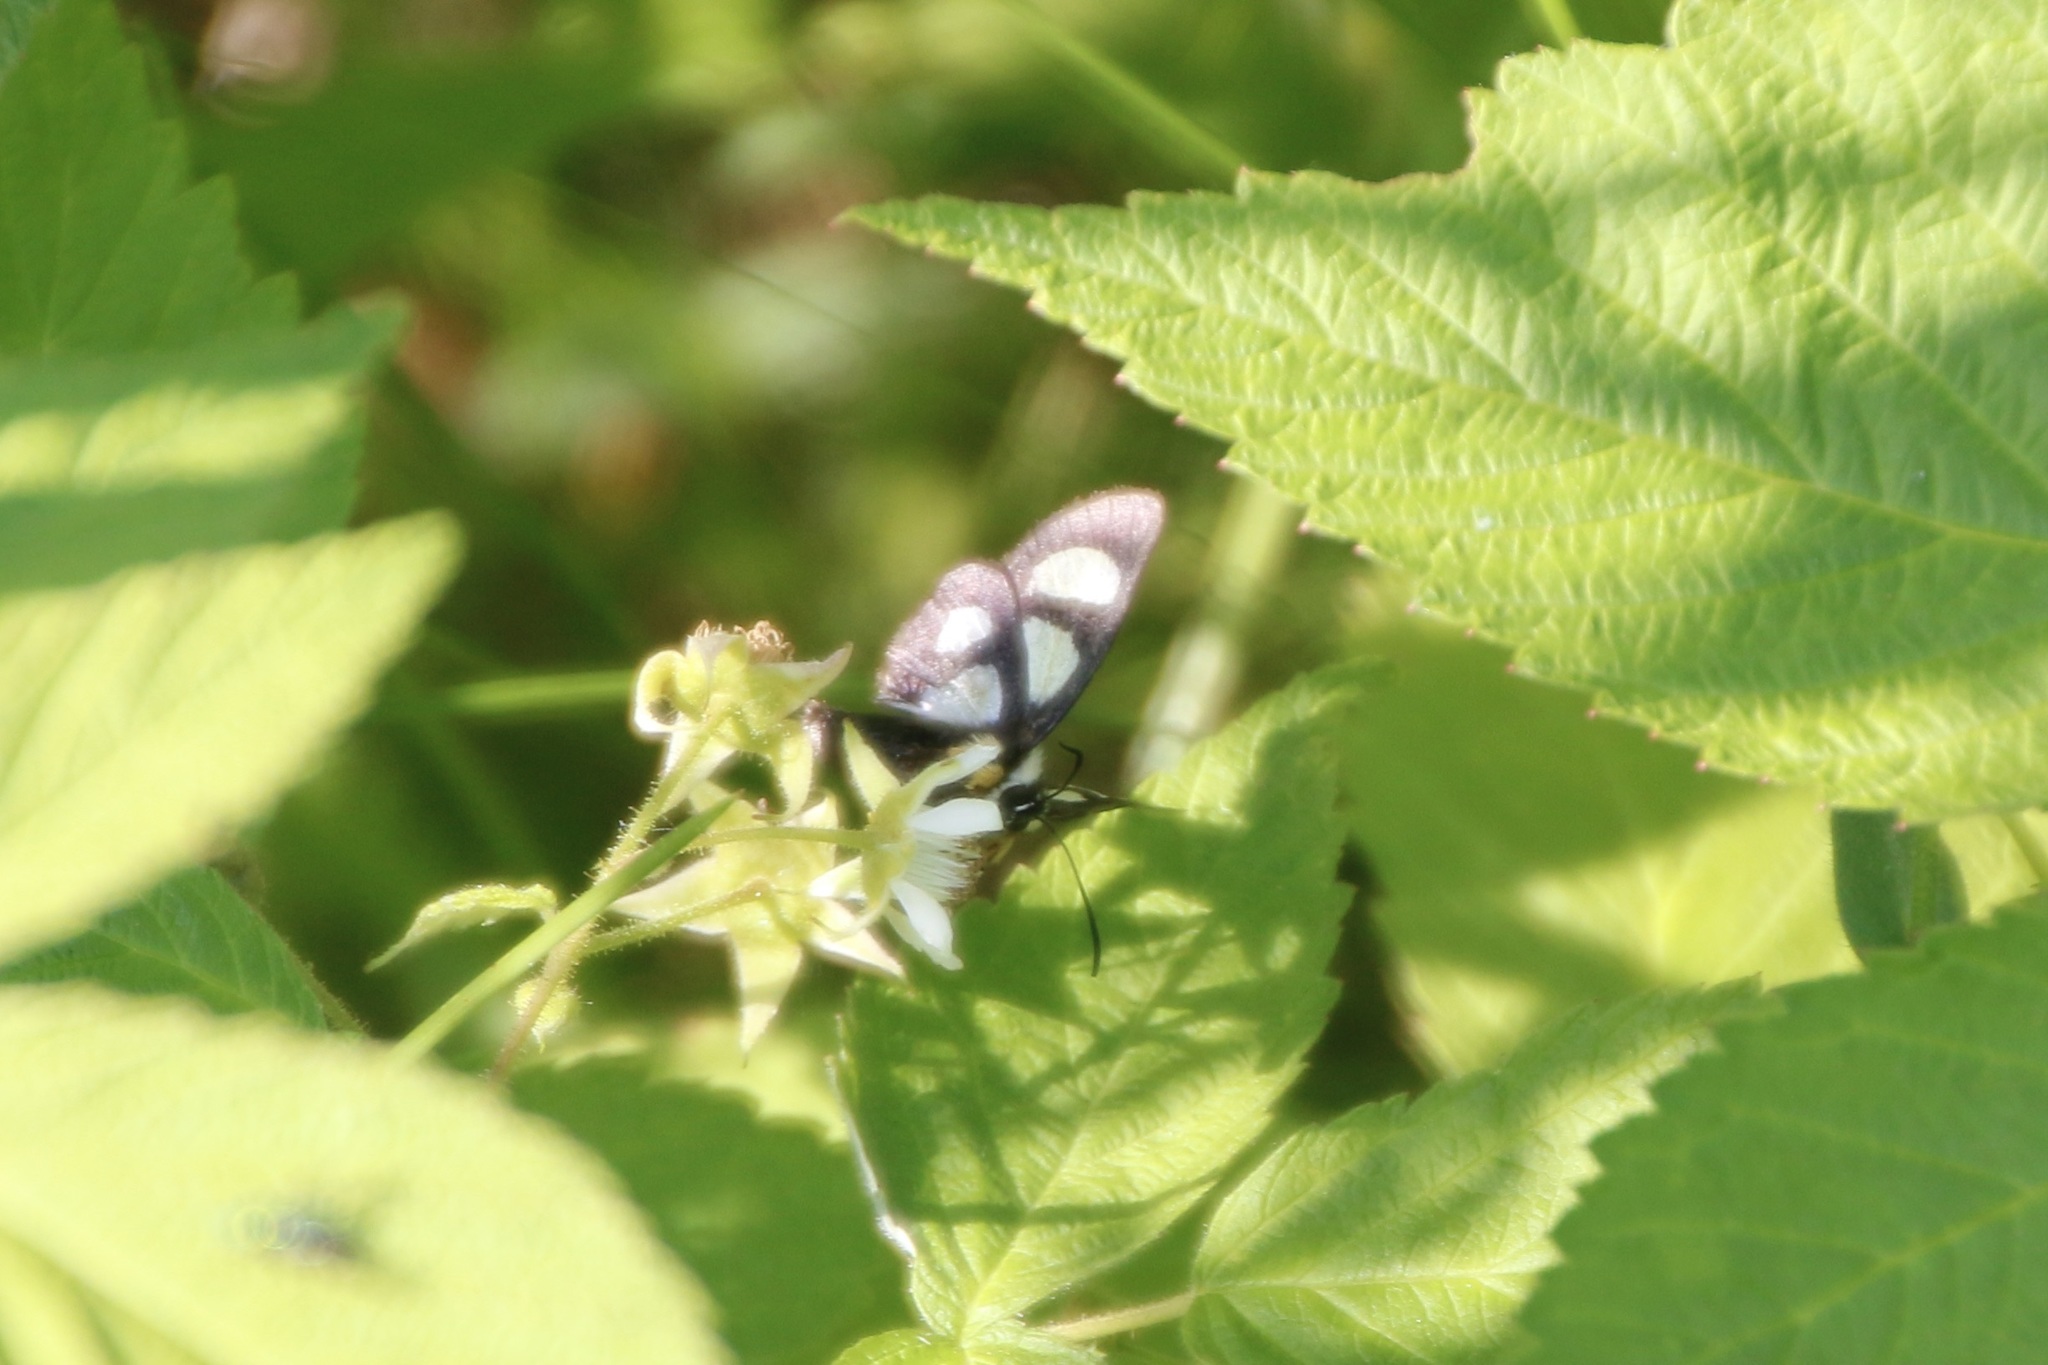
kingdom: Animalia
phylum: Arthropoda
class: Insecta
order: Lepidoptera
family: Noctuidae
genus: Alypia
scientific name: Alypia octomaculata
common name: Eight-spotted forester
